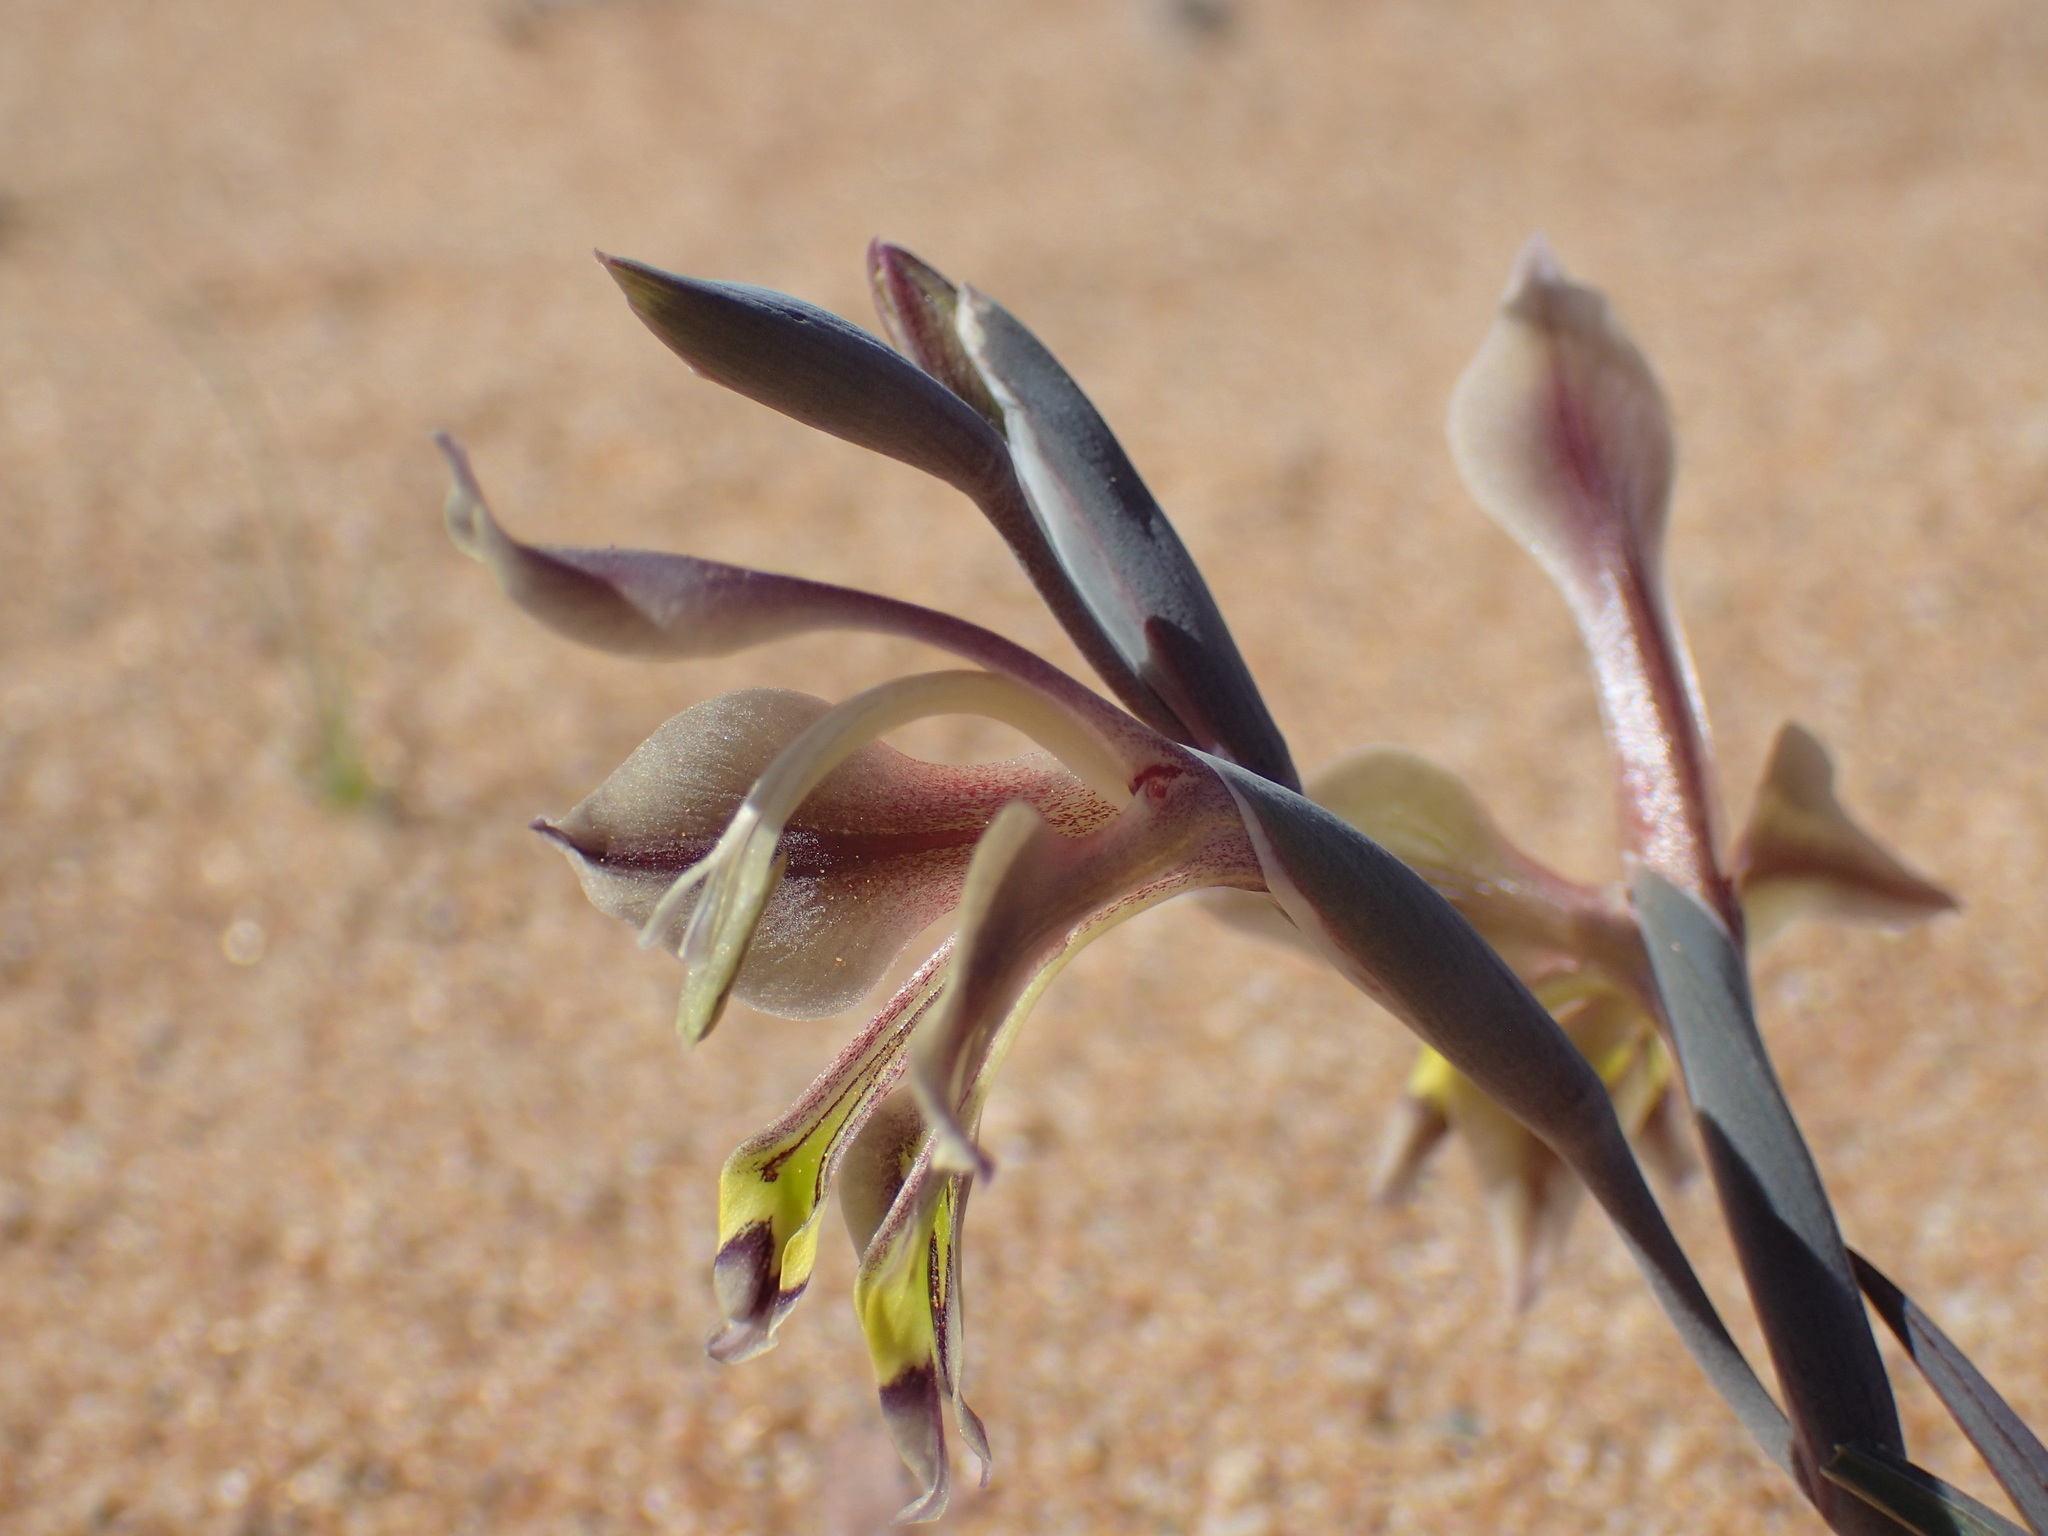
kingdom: Plantae
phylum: Tracheophyta
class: Liliopsida
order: Asparagales
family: Iridaceae
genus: Gladiolus
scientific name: Gladiolus orchidiflorus
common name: Gray kalkoentjie
